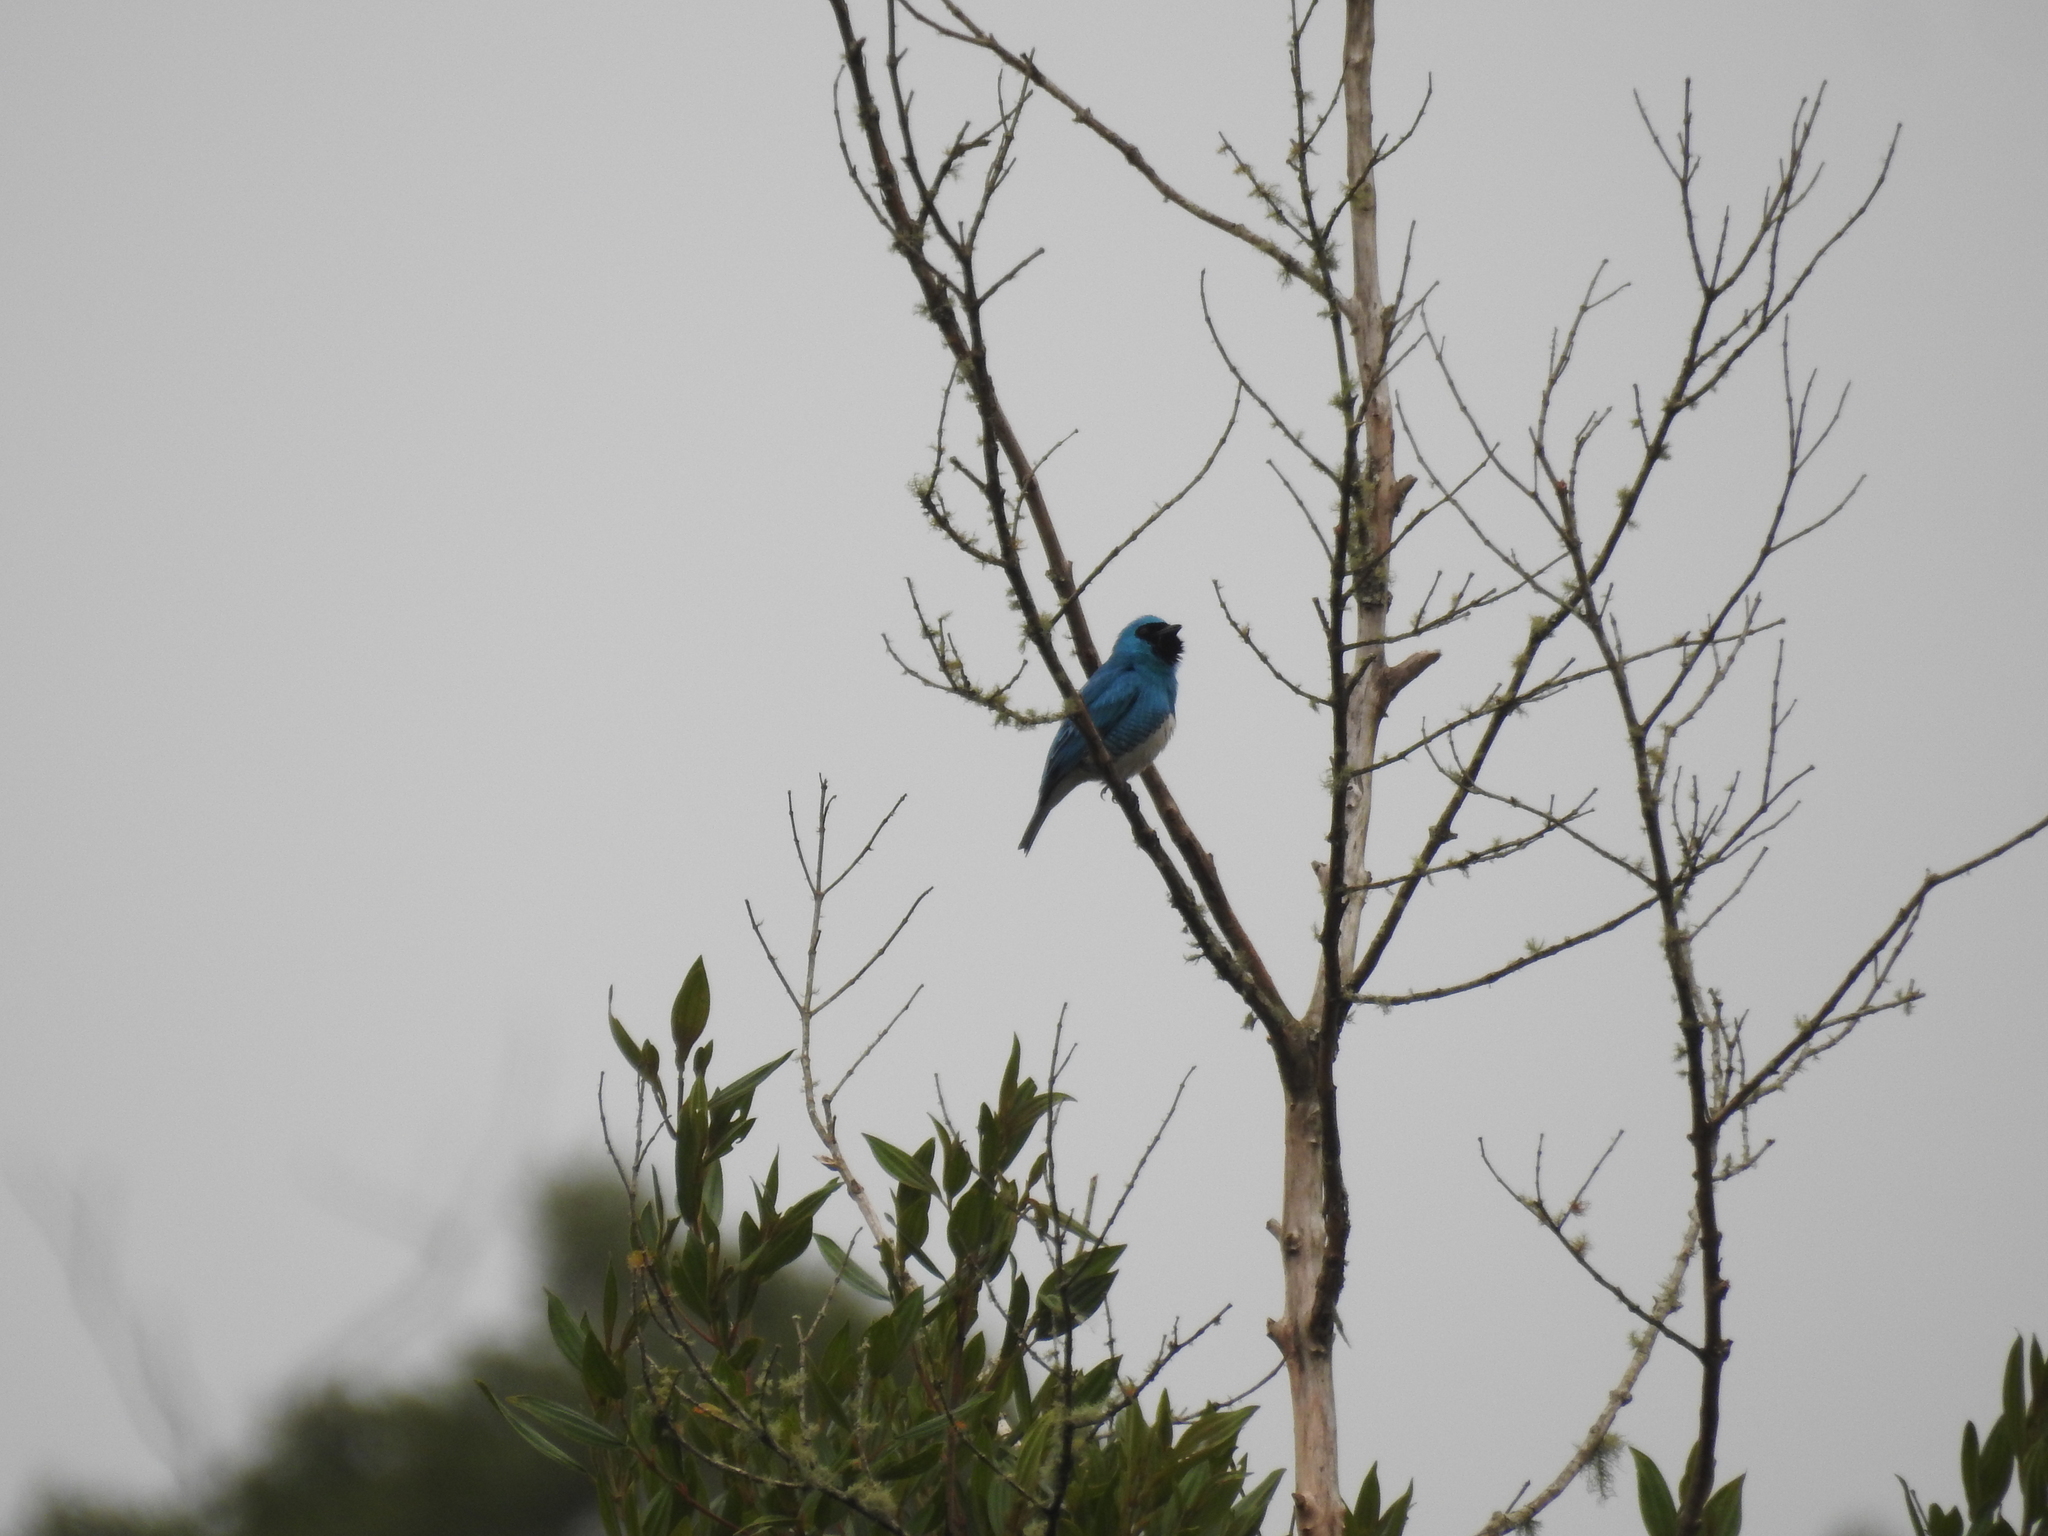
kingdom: Animalia
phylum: Chordata
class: Aves
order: Passeriformes
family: Thraupidae
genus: Tersina
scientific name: Tersina viridis
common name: Swallow tanager
